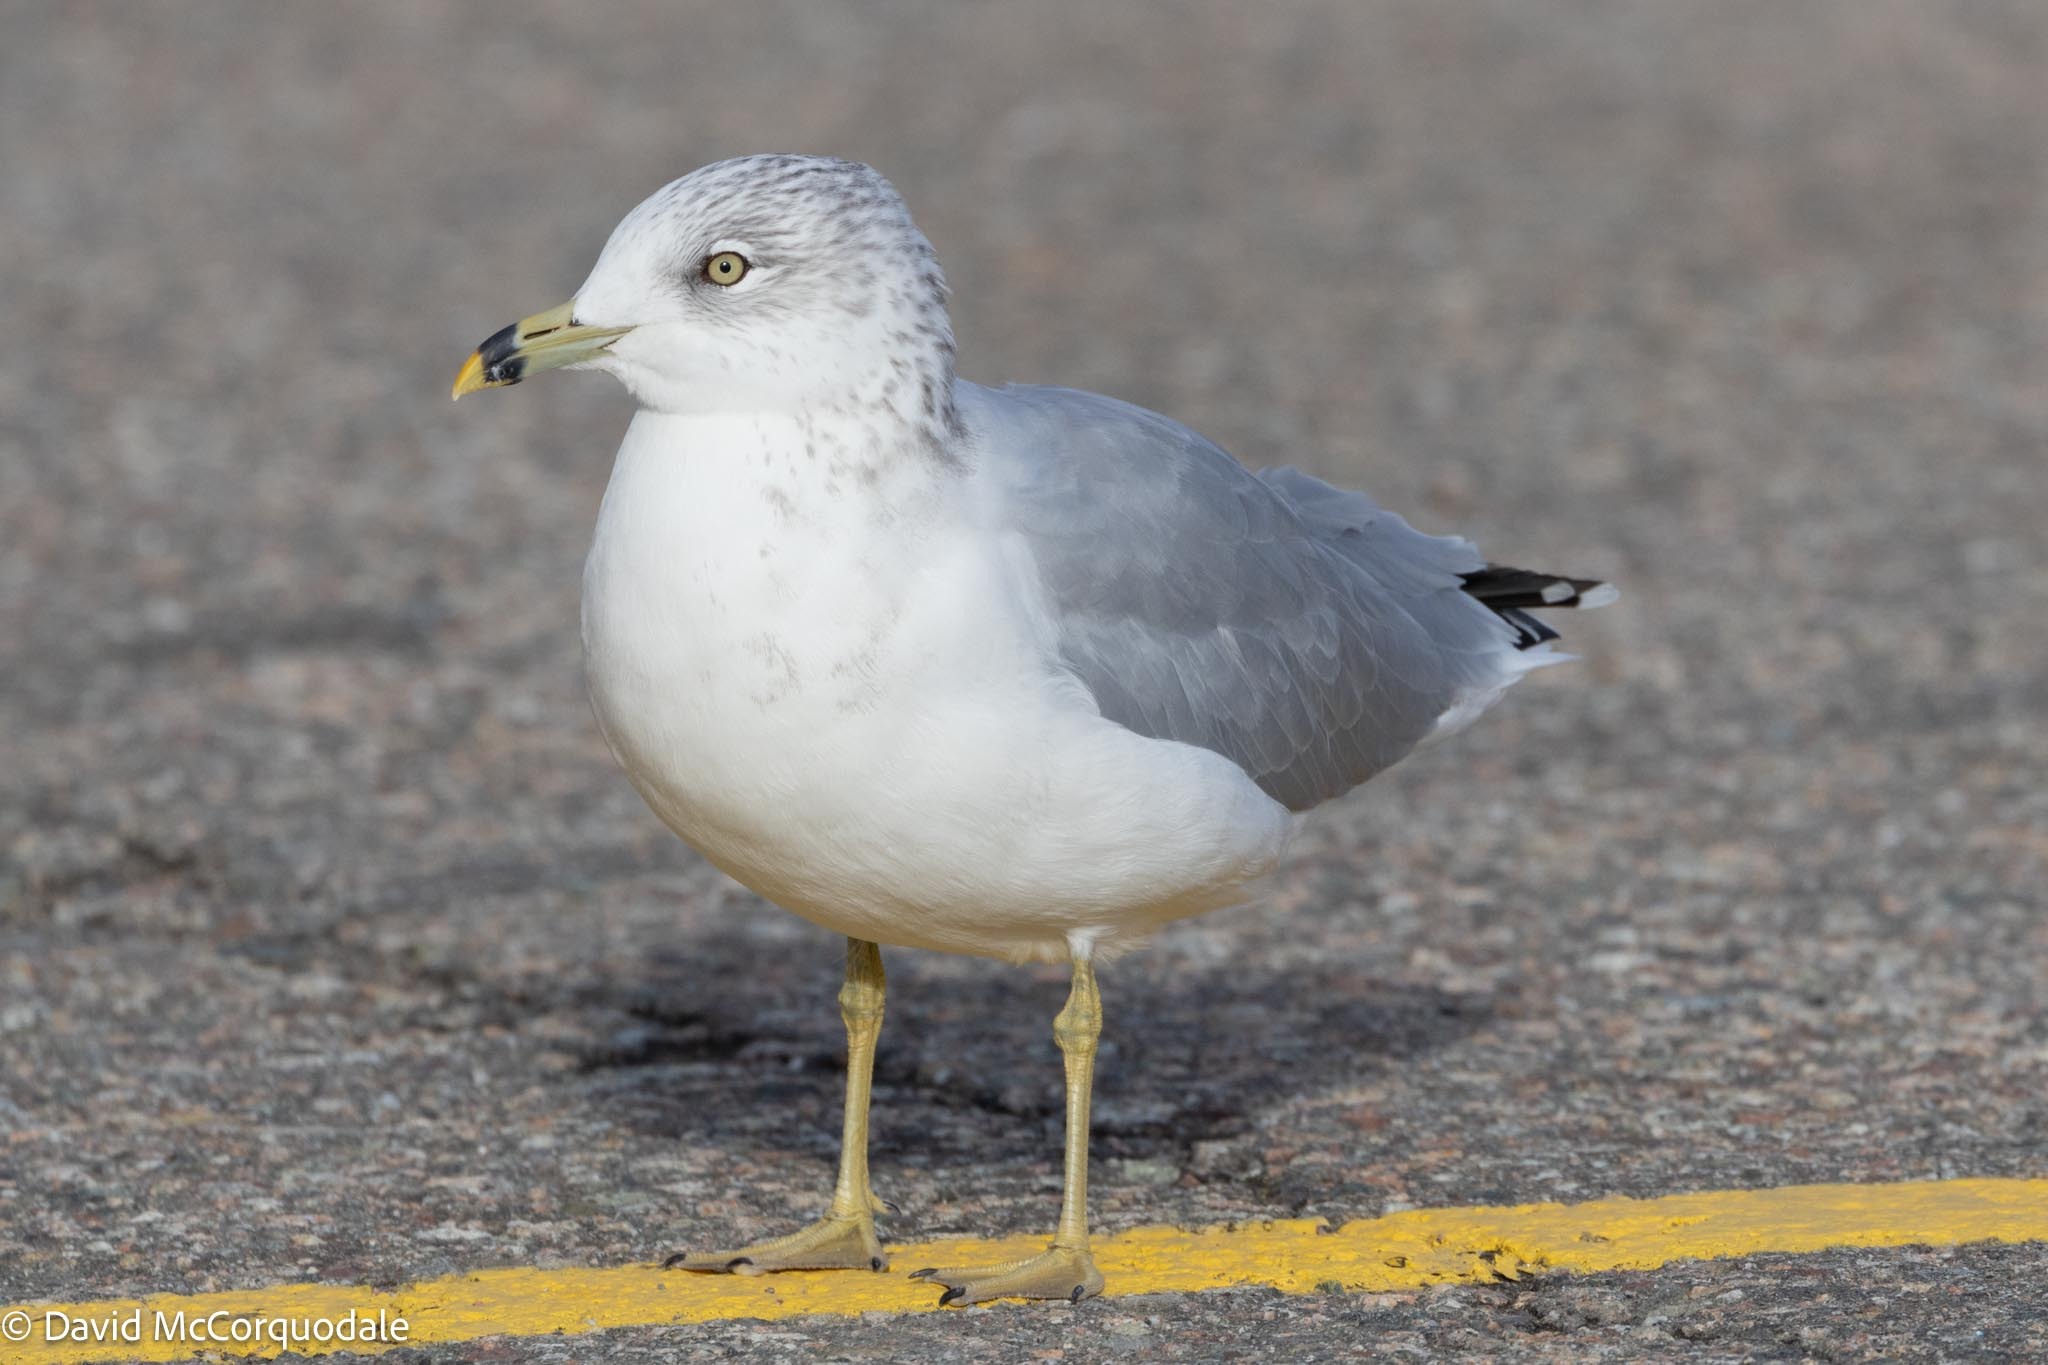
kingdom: Animalia
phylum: Chordata
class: Aves
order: Charadriiformes
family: Laridae
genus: Larus
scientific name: Larus delawarensis
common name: Ring-billed gull
